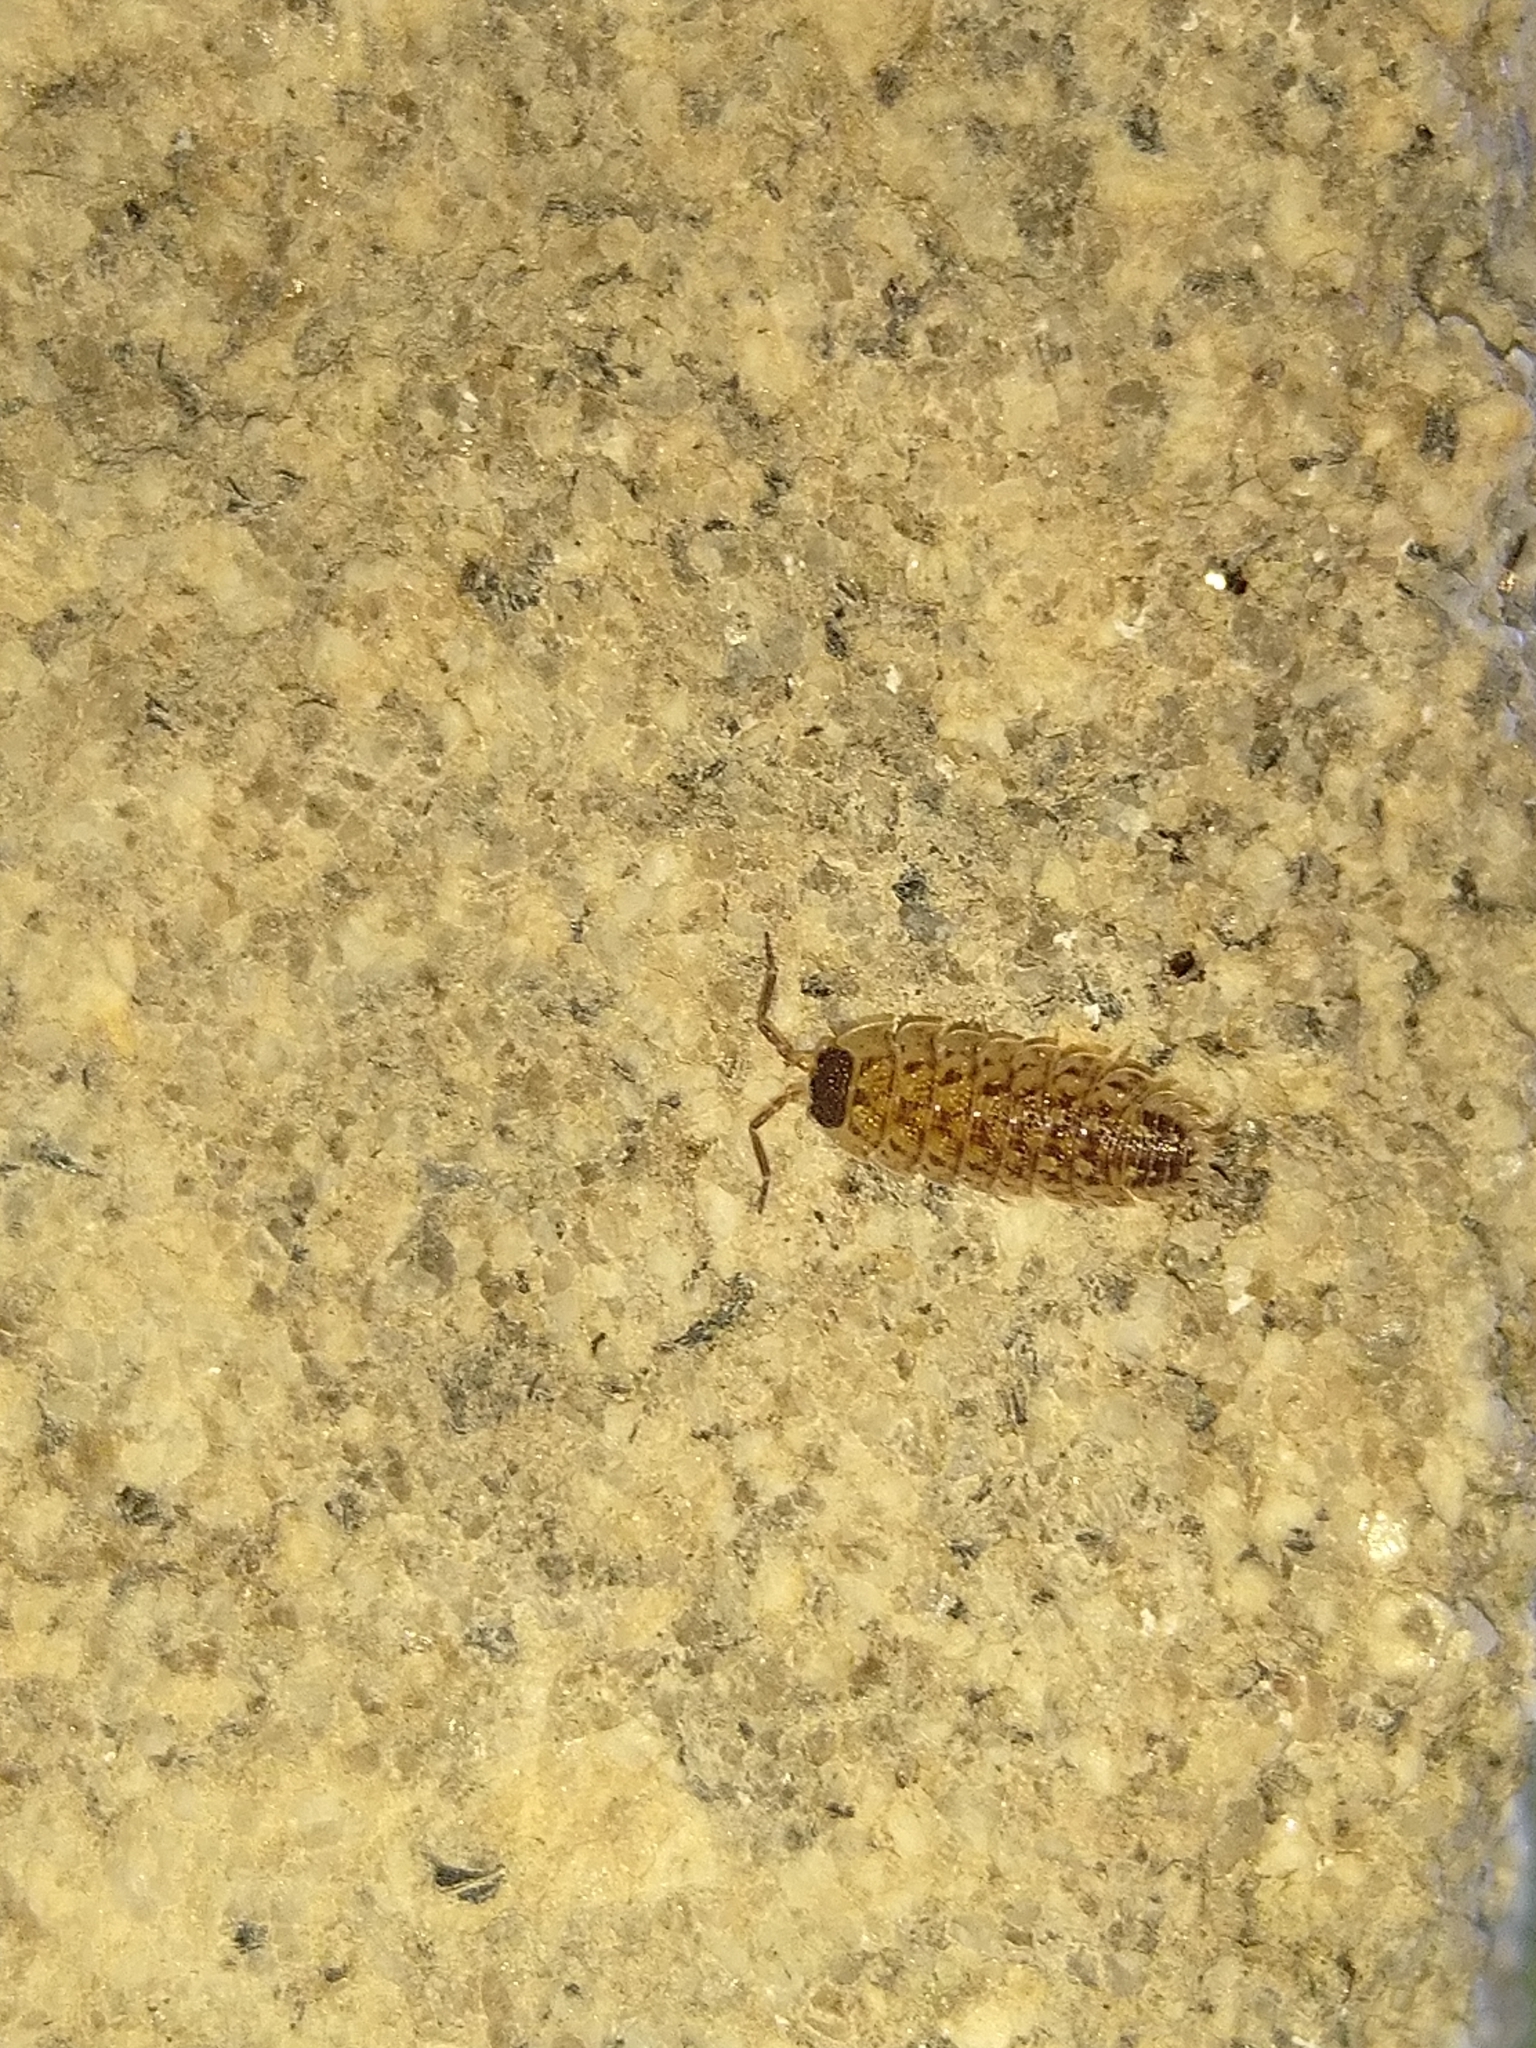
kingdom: Animalia
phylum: Arthropoda
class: Malacostraca
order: Isopoda
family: Porcellionidae
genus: Porcellio
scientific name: Porcellio spinicornis
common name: Painted woodlouse
